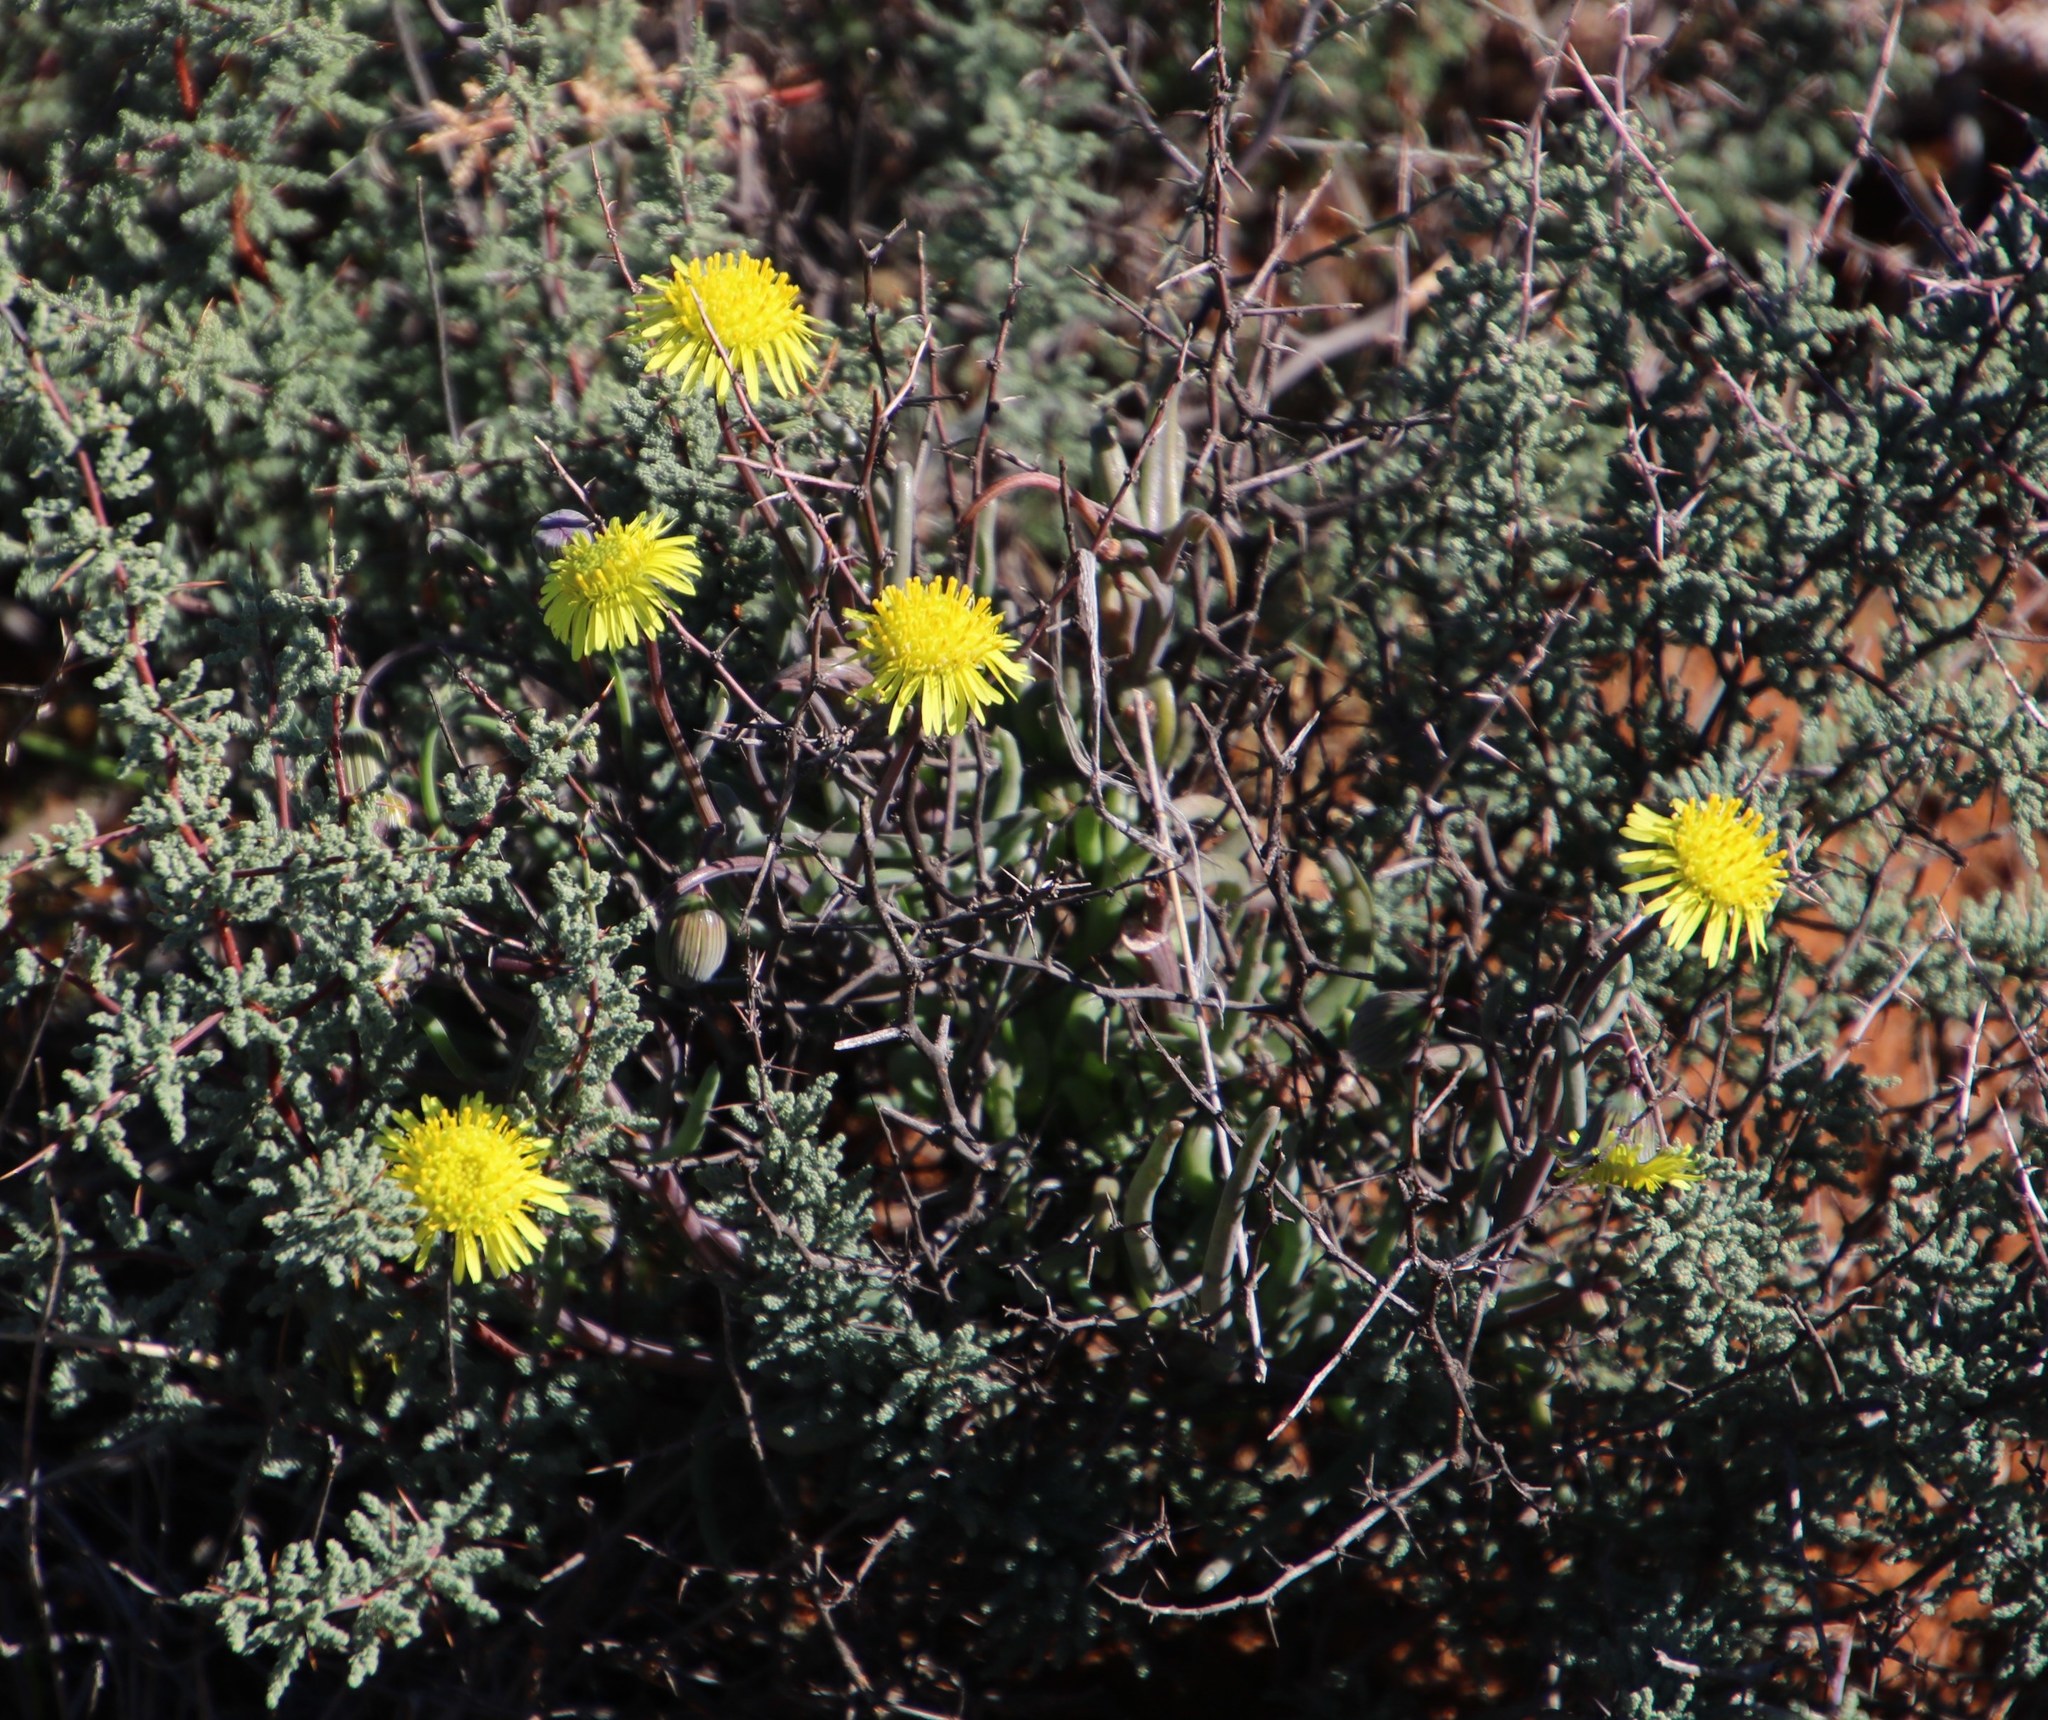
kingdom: Plantae
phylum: Tracheophyta
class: Magnoliopsida
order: Asterales
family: Asteraceae
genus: Crassothonna
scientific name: Crassothonna protecta
